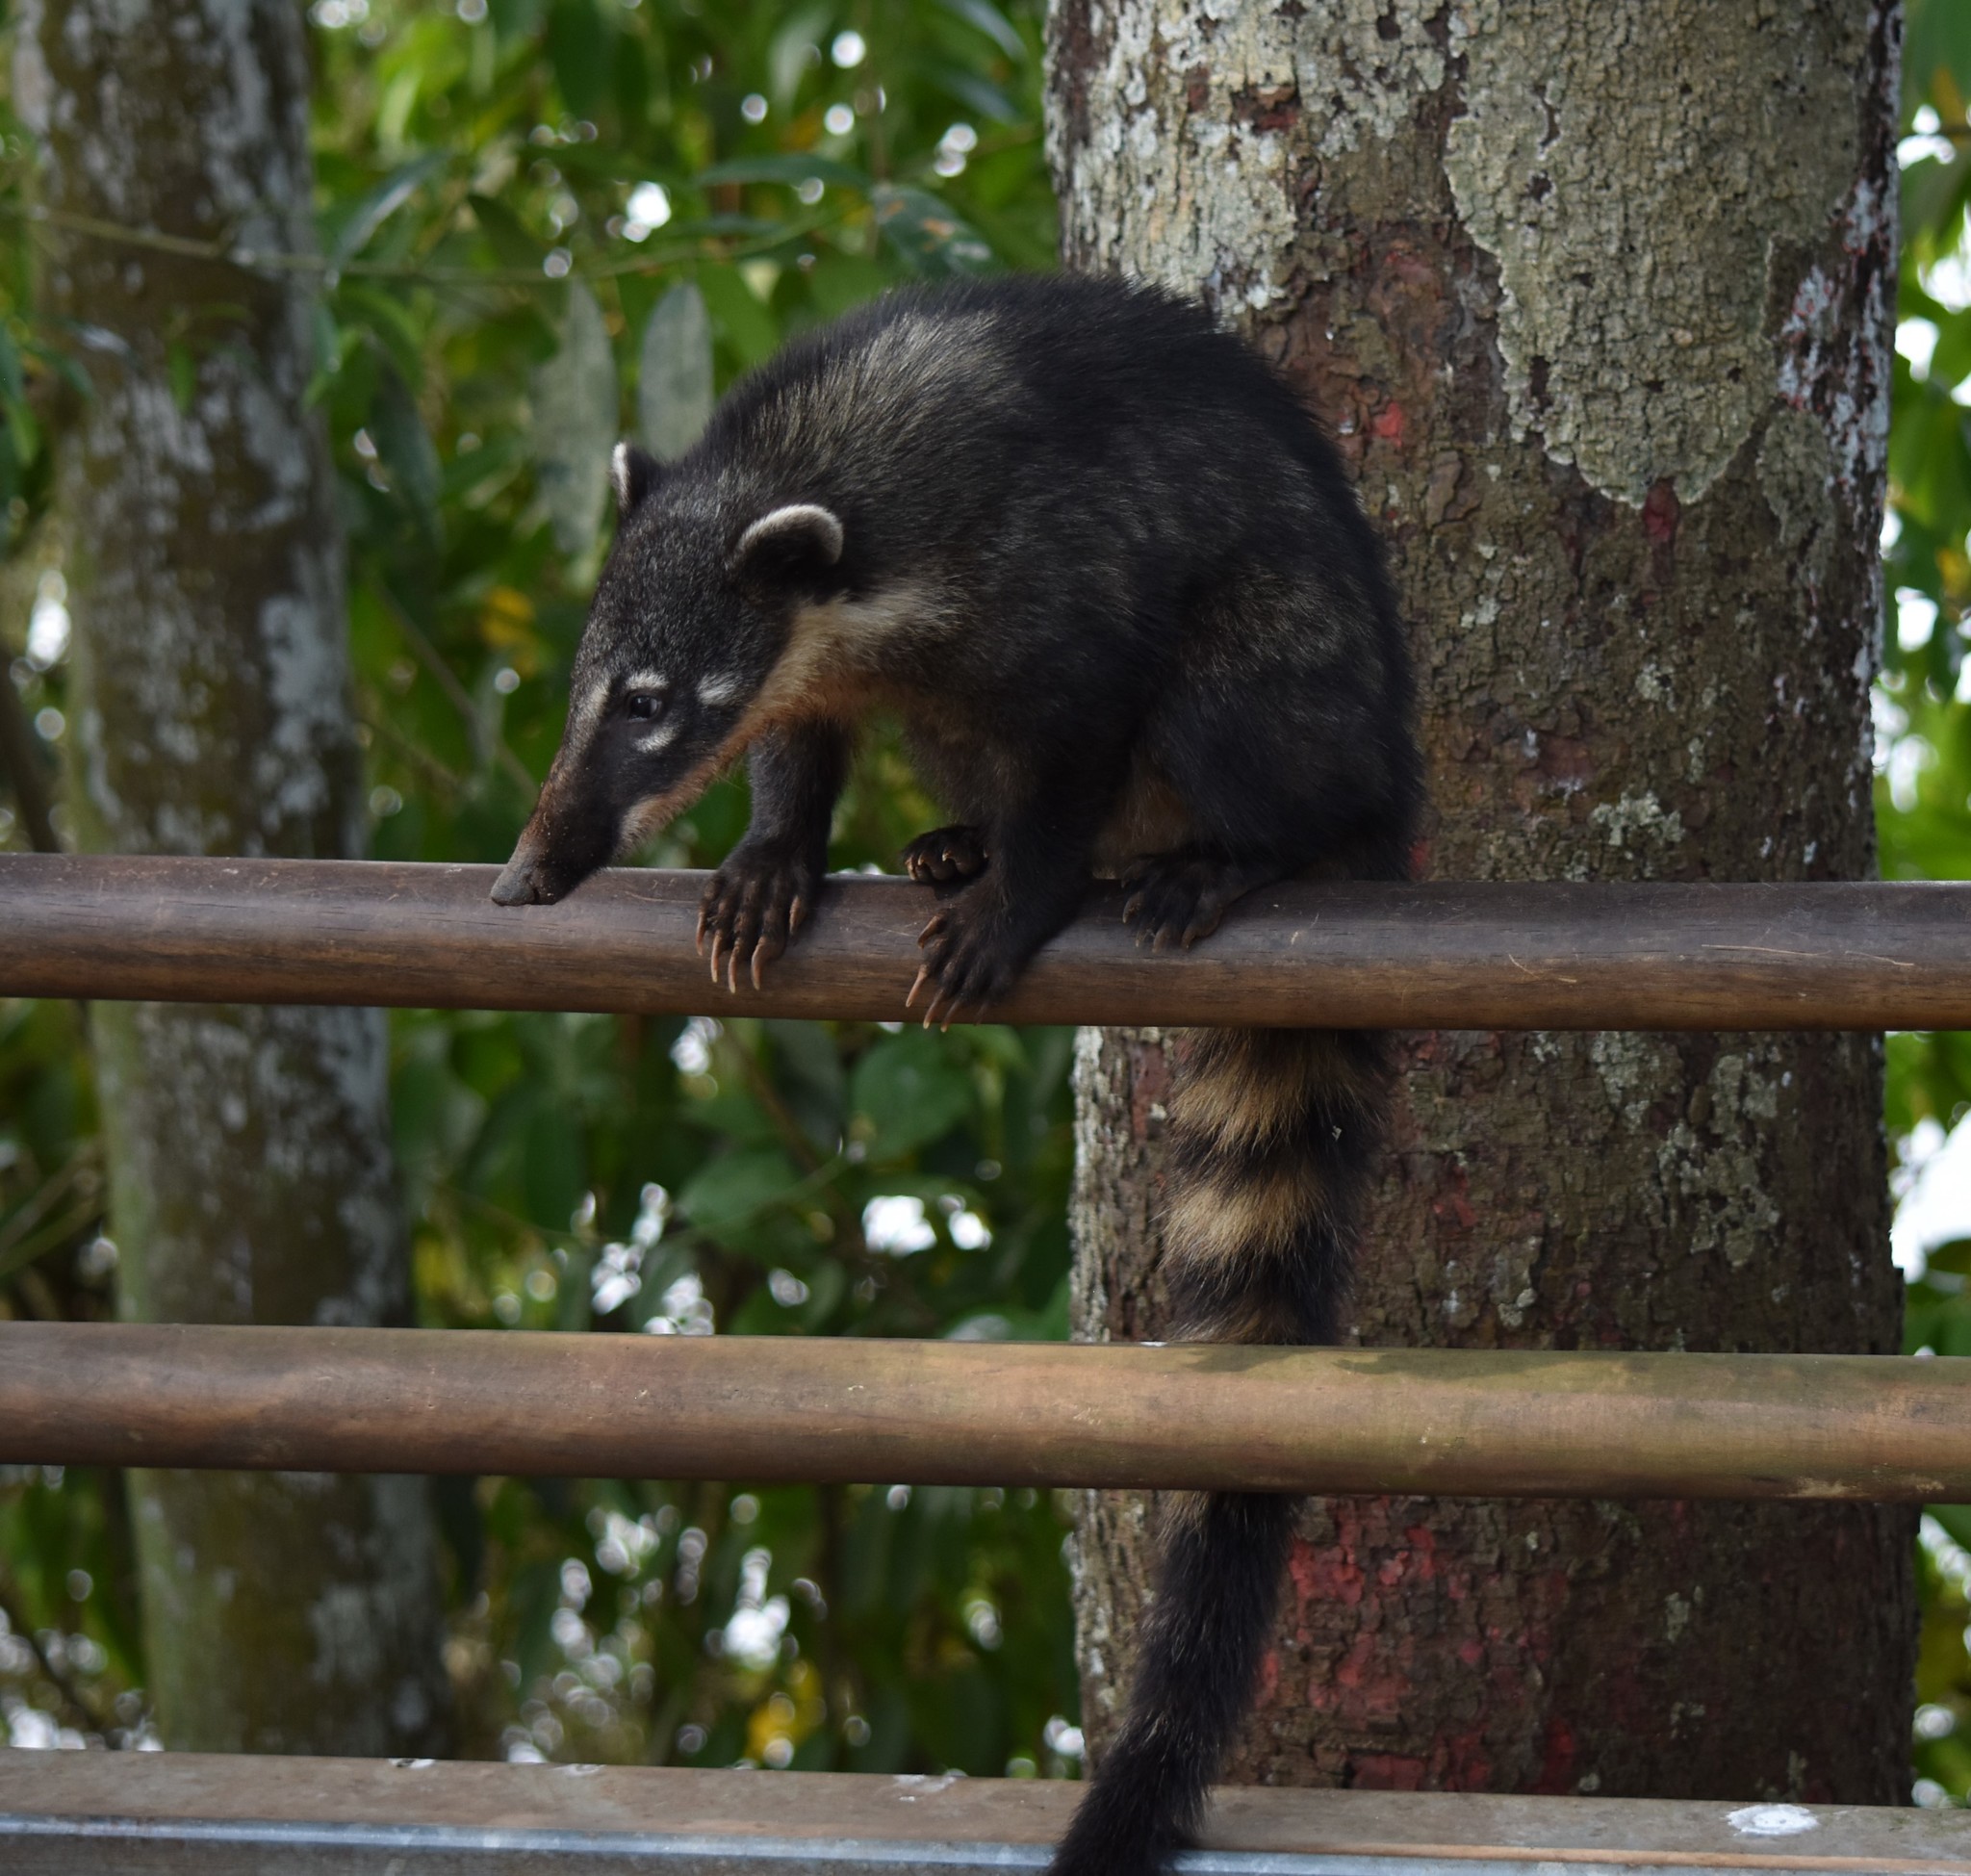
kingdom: Animalia
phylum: Chordata
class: Mammalia
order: Carnivora
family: Procyonidae
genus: Nasua
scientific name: Nasua nasua
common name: South american coati
